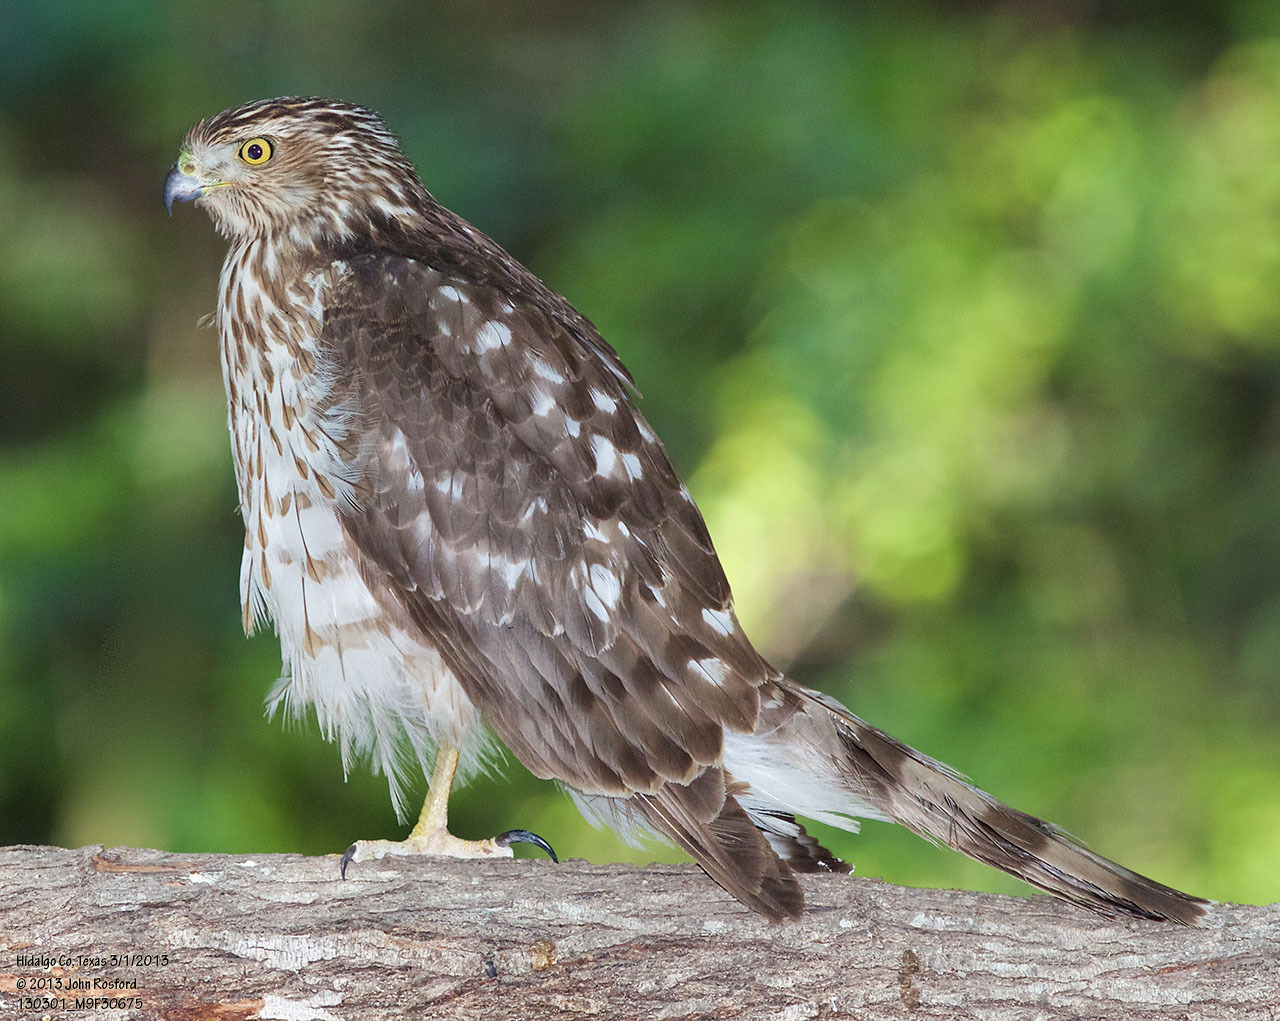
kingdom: Animalia
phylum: Chordata
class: Aves
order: Accipitriformes
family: Accipitridae
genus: Accipiter
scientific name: Accipiter cooperii
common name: Cooper's hawk
